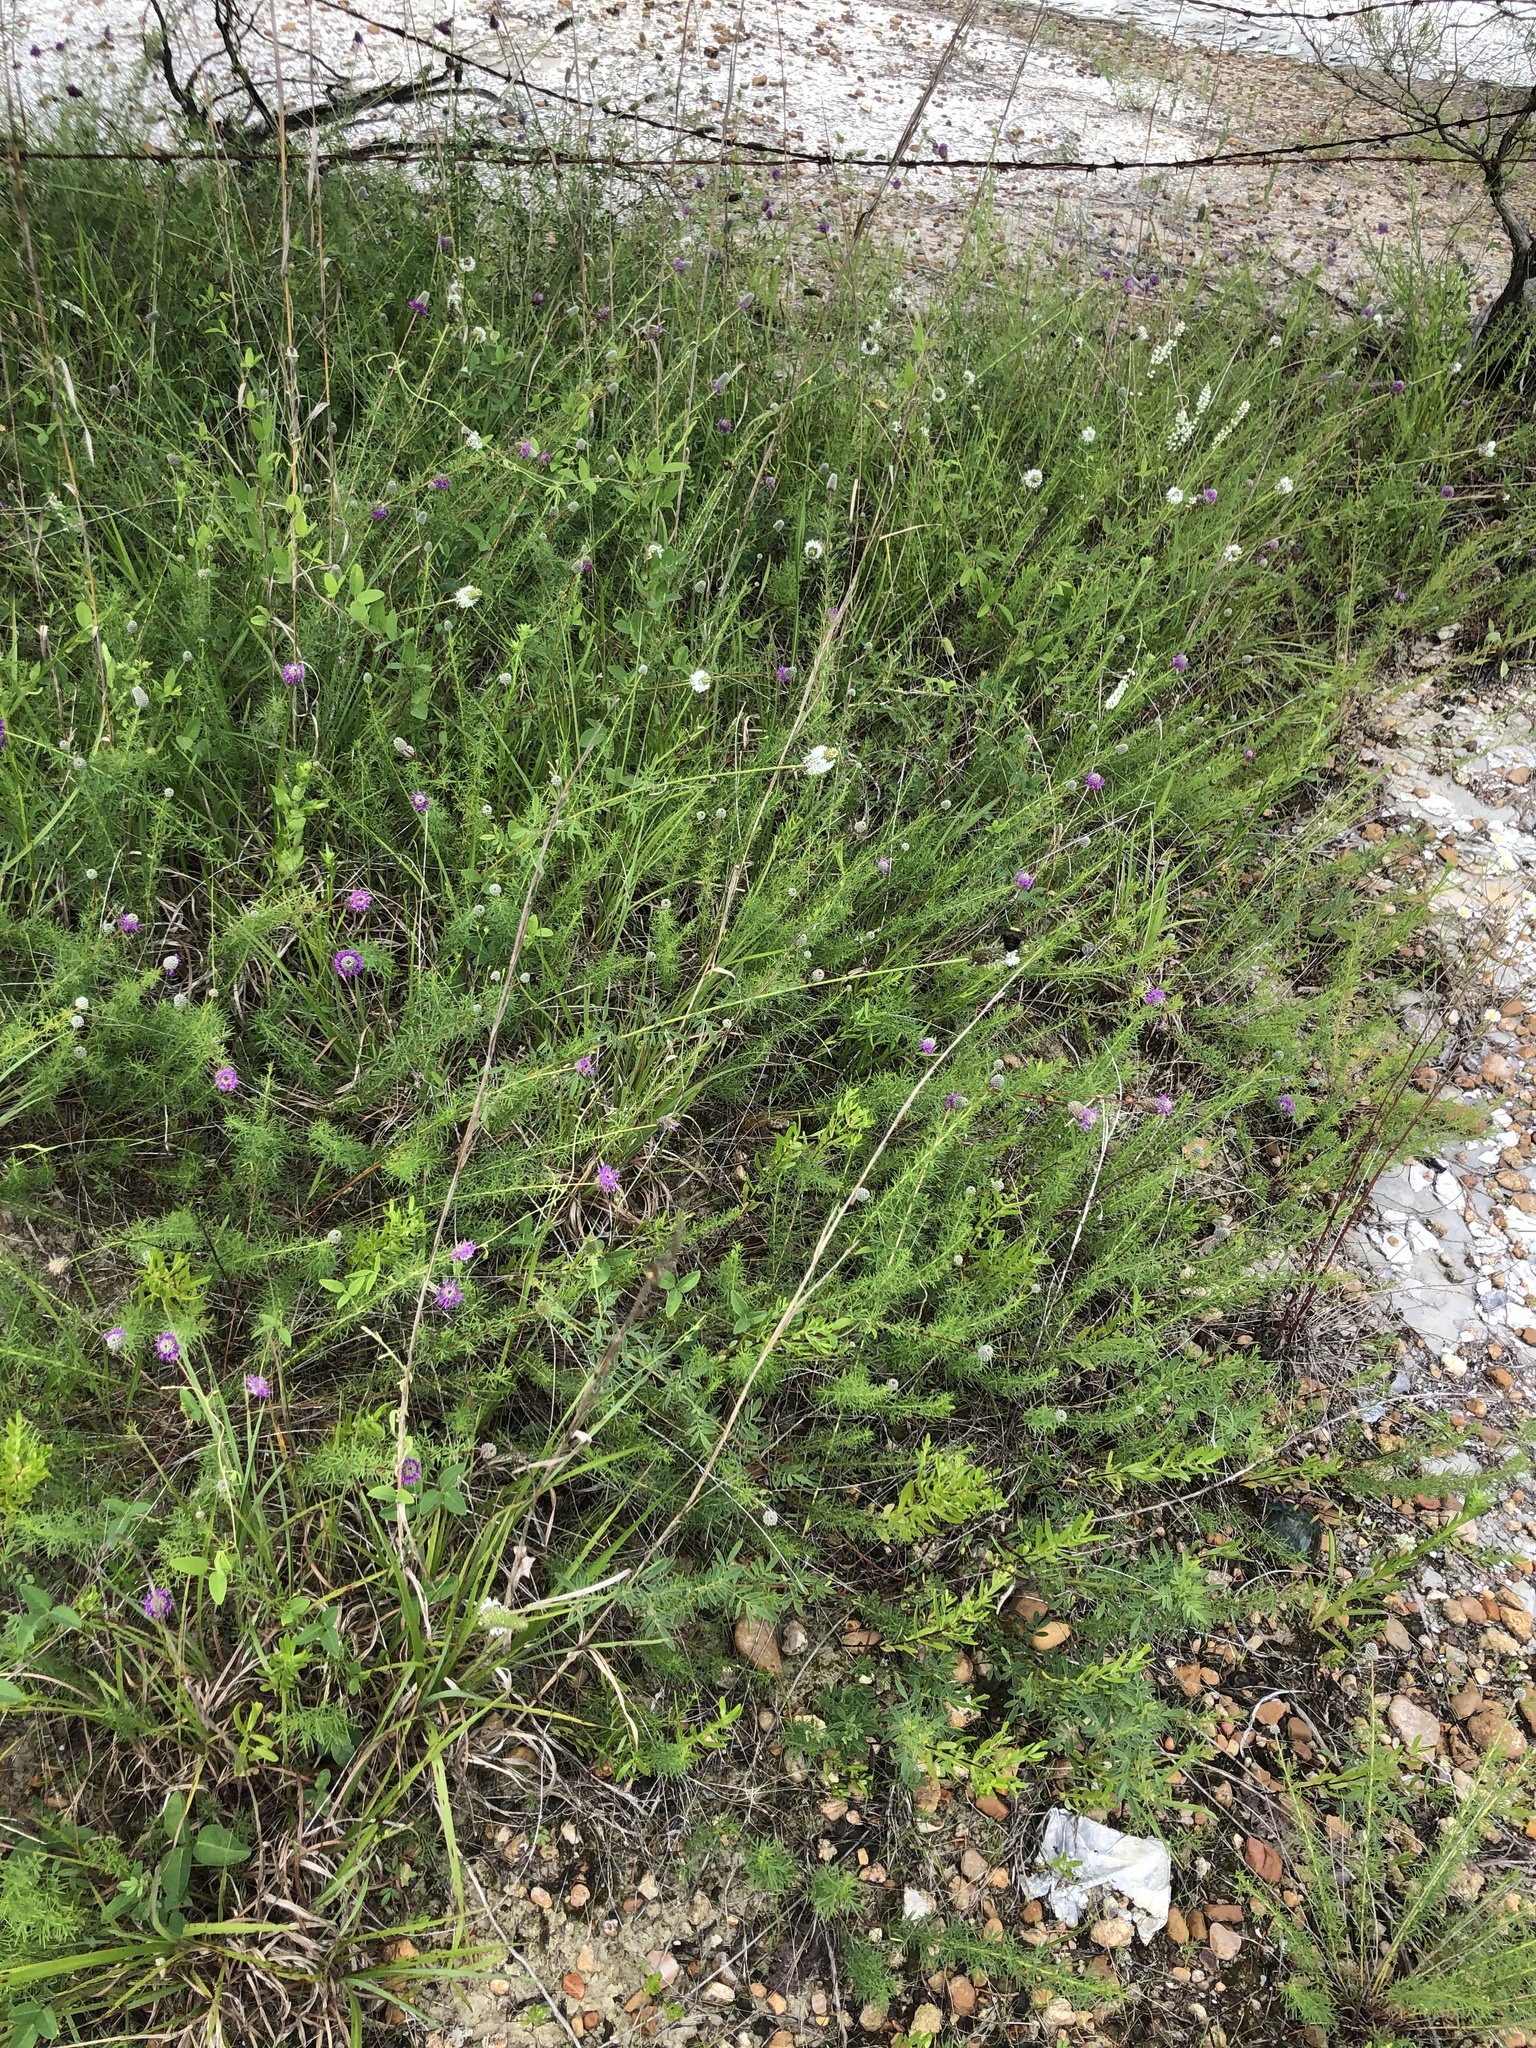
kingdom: Plantae
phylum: Tracheophyta
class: Magnoliopsida
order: Fabales
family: Fabaceae
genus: Dalea
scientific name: Dalea candida
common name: White prairie-clover
